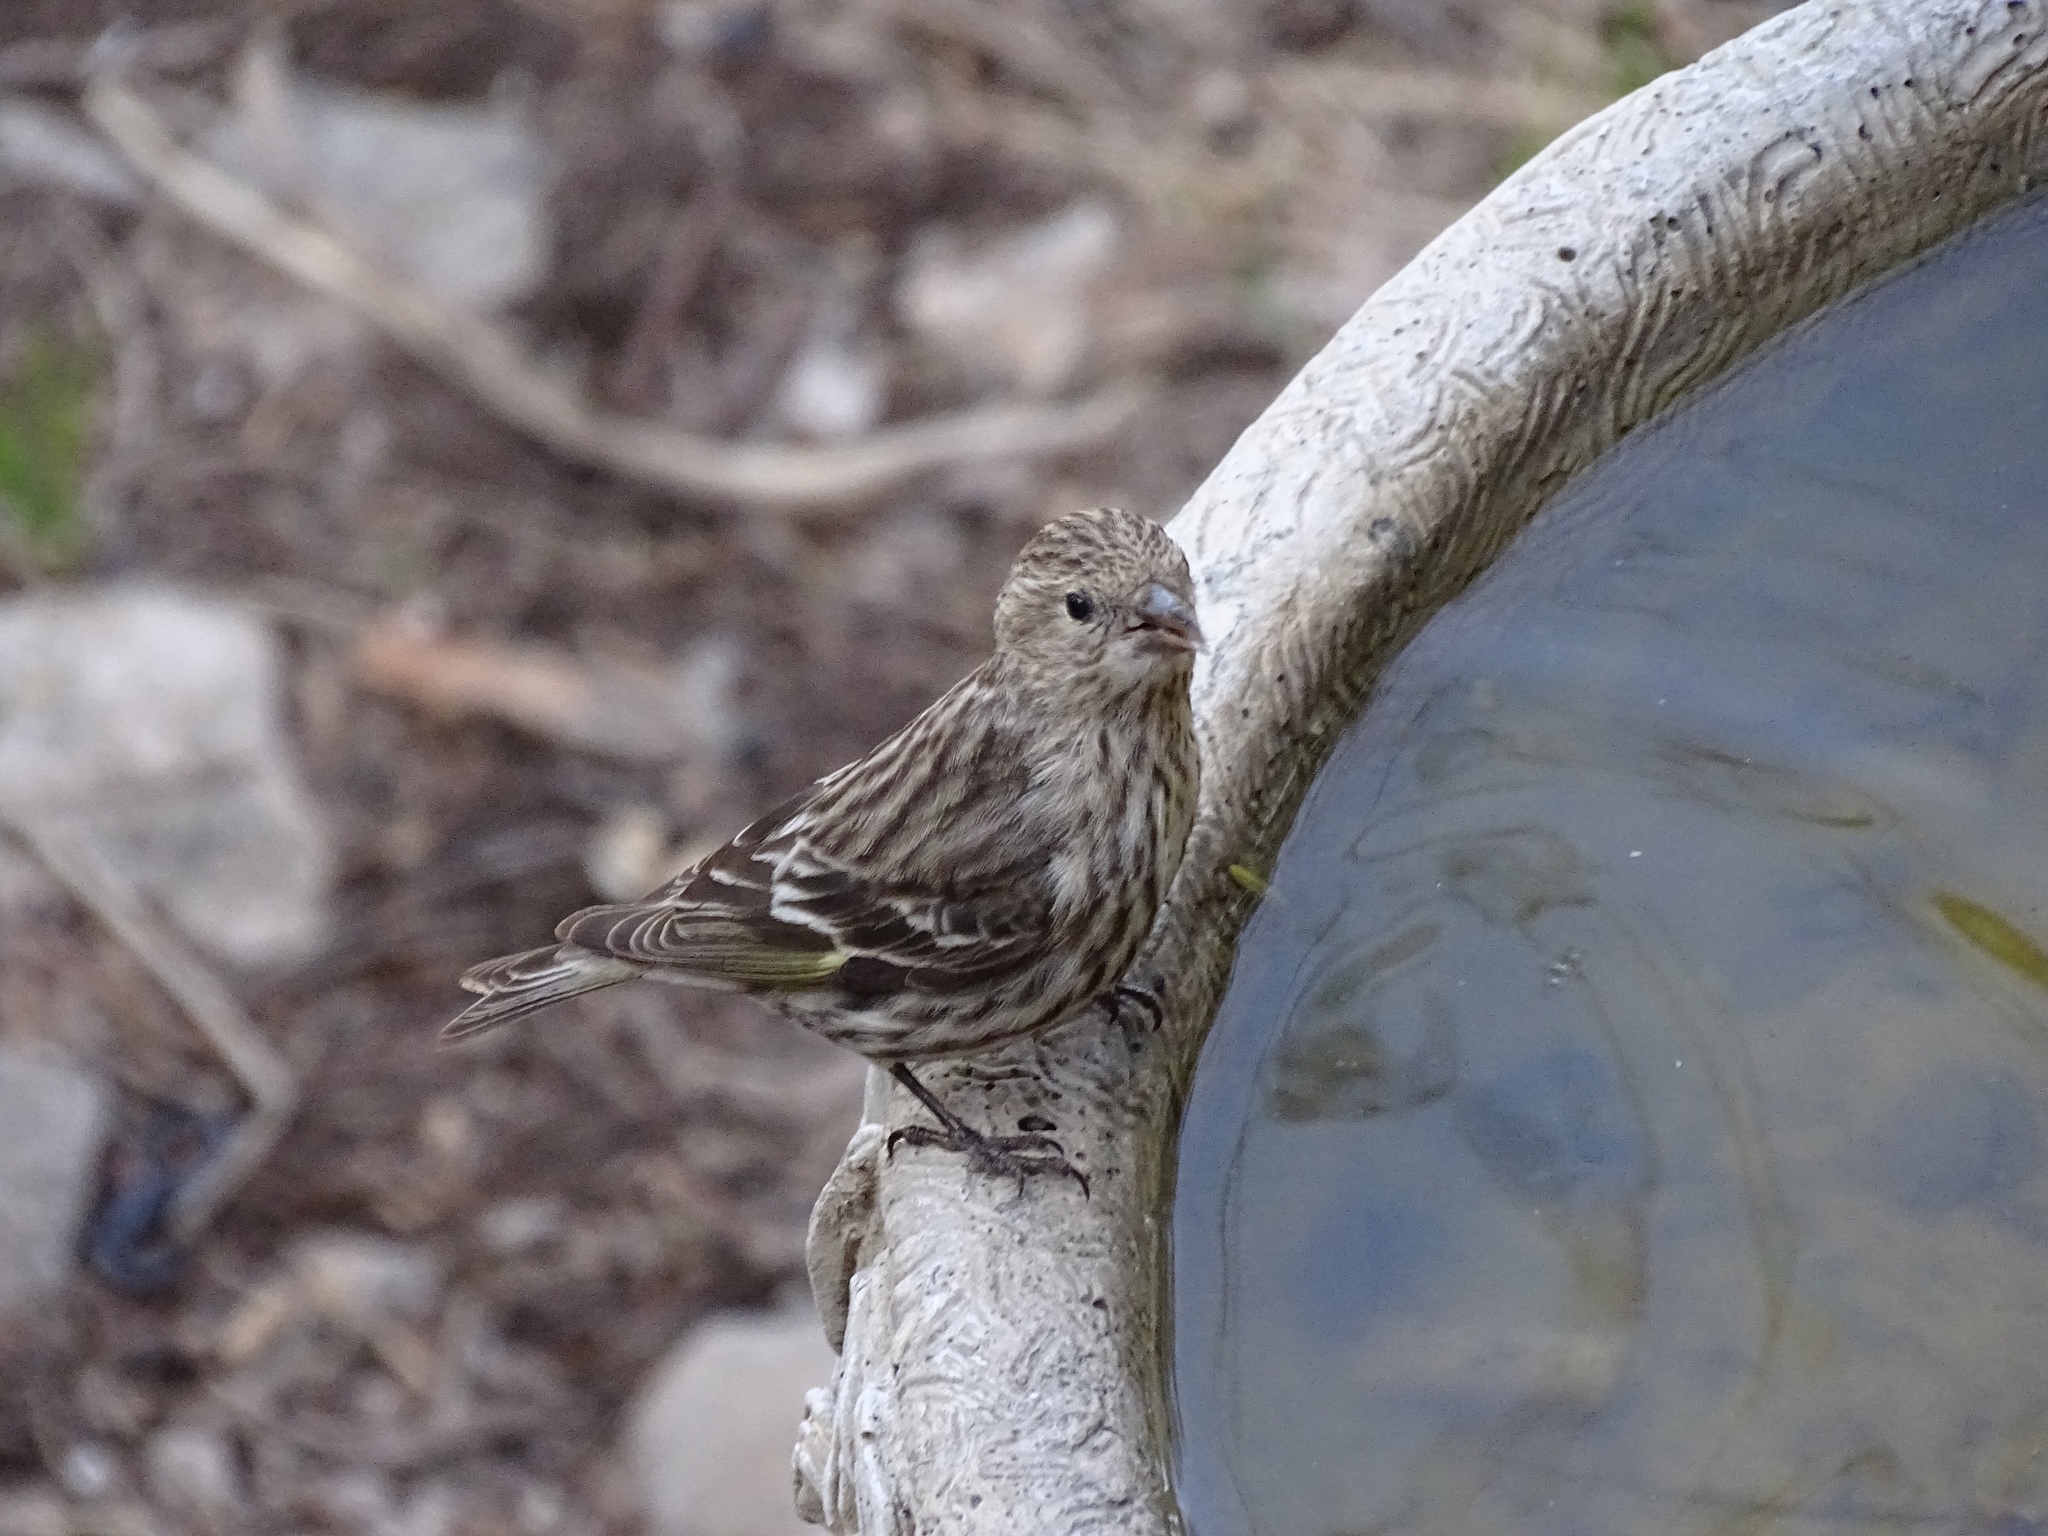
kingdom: Animalia
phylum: Chordata
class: Aves
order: Passeriformes
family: Fringillidae
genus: Spinus
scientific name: Spinus pinus
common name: Pine siskin
